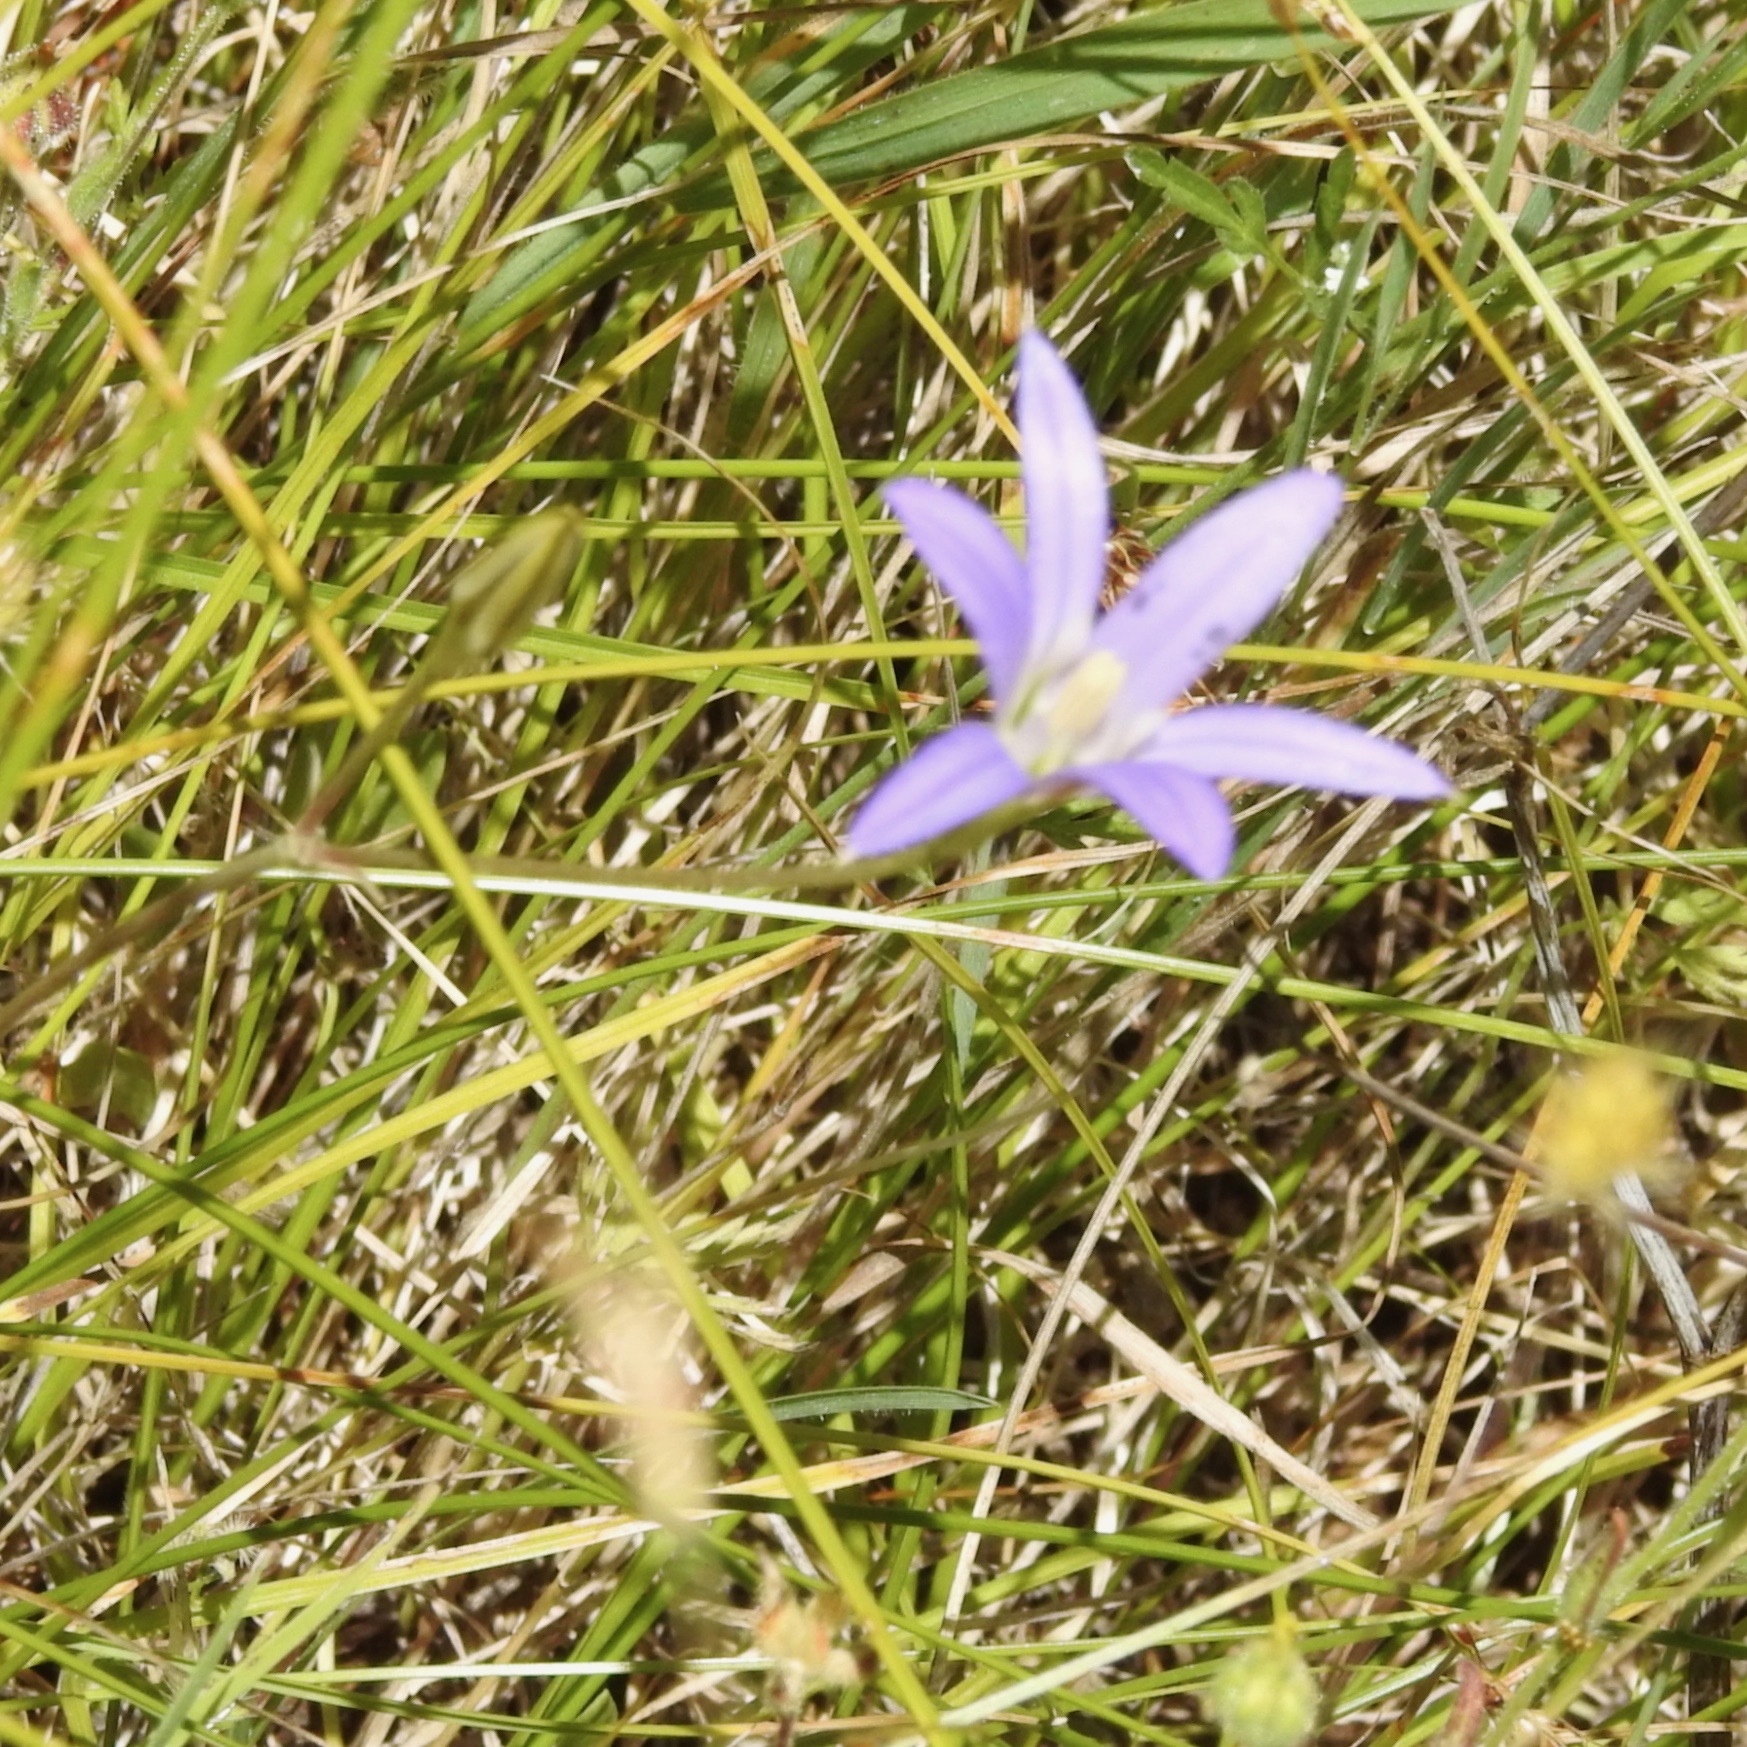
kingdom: Plantae
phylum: Tracheophyta
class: Liliopsida
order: Asparagales
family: Asparagaceae
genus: Brodiaea
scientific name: Brodiaea elegans
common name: Elegant cluster-lily
